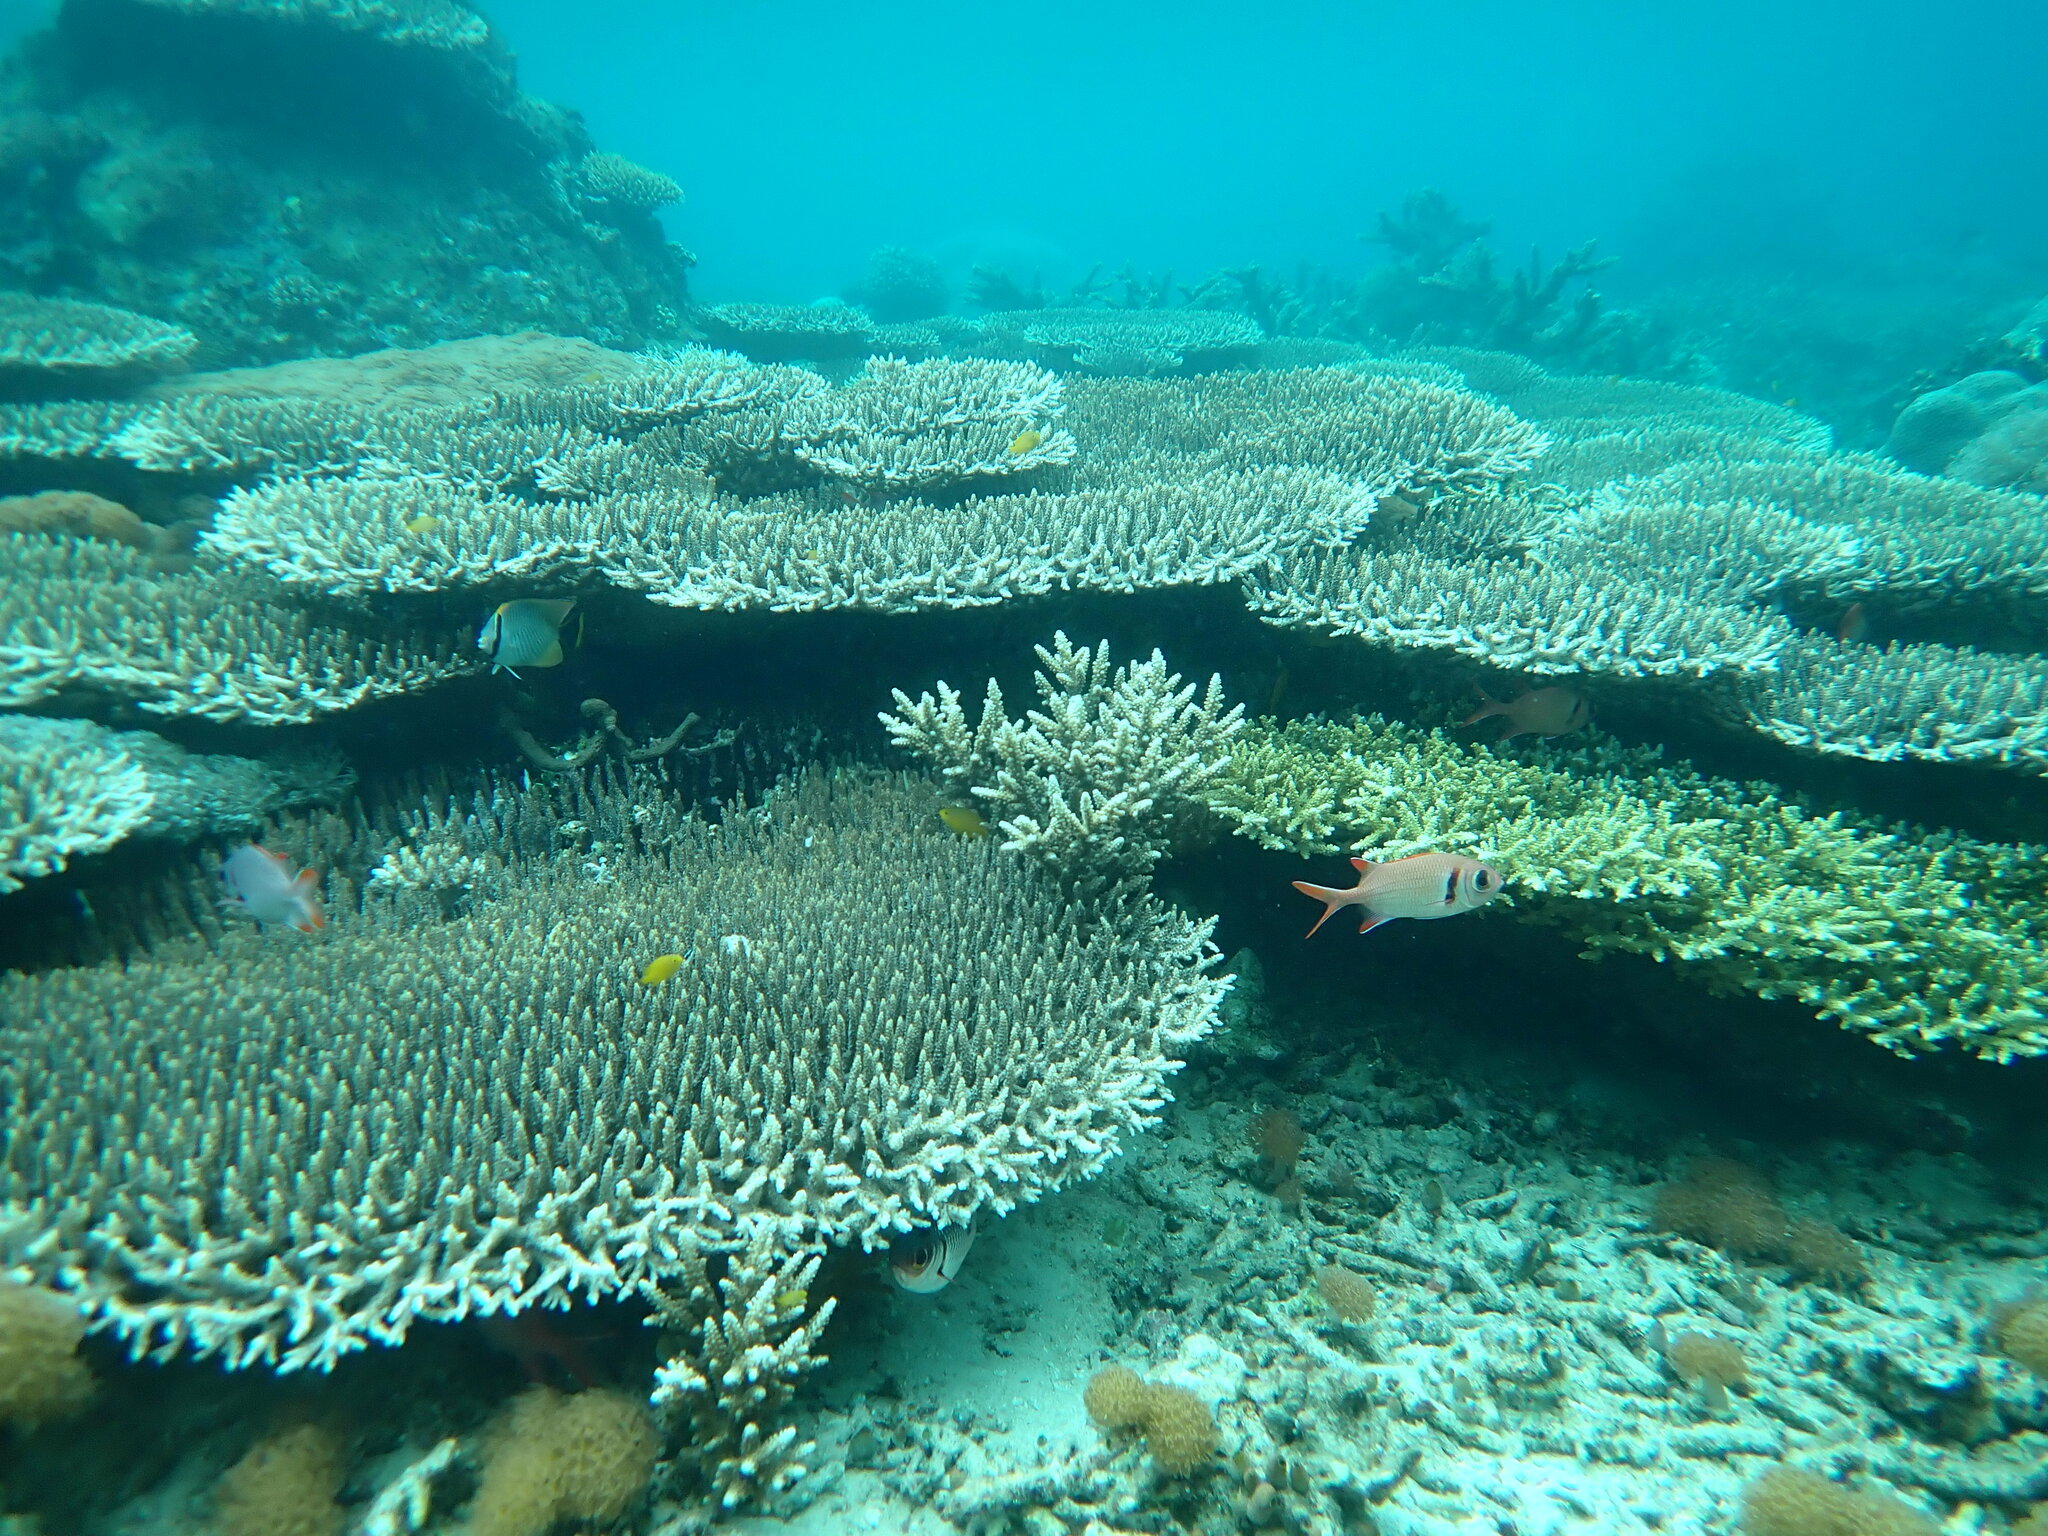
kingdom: Animalia
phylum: Chordata
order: Beryciformes
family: Holocentridae
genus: Myripristis
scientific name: Myripristis kuntee
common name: Epaulette soldierfish
